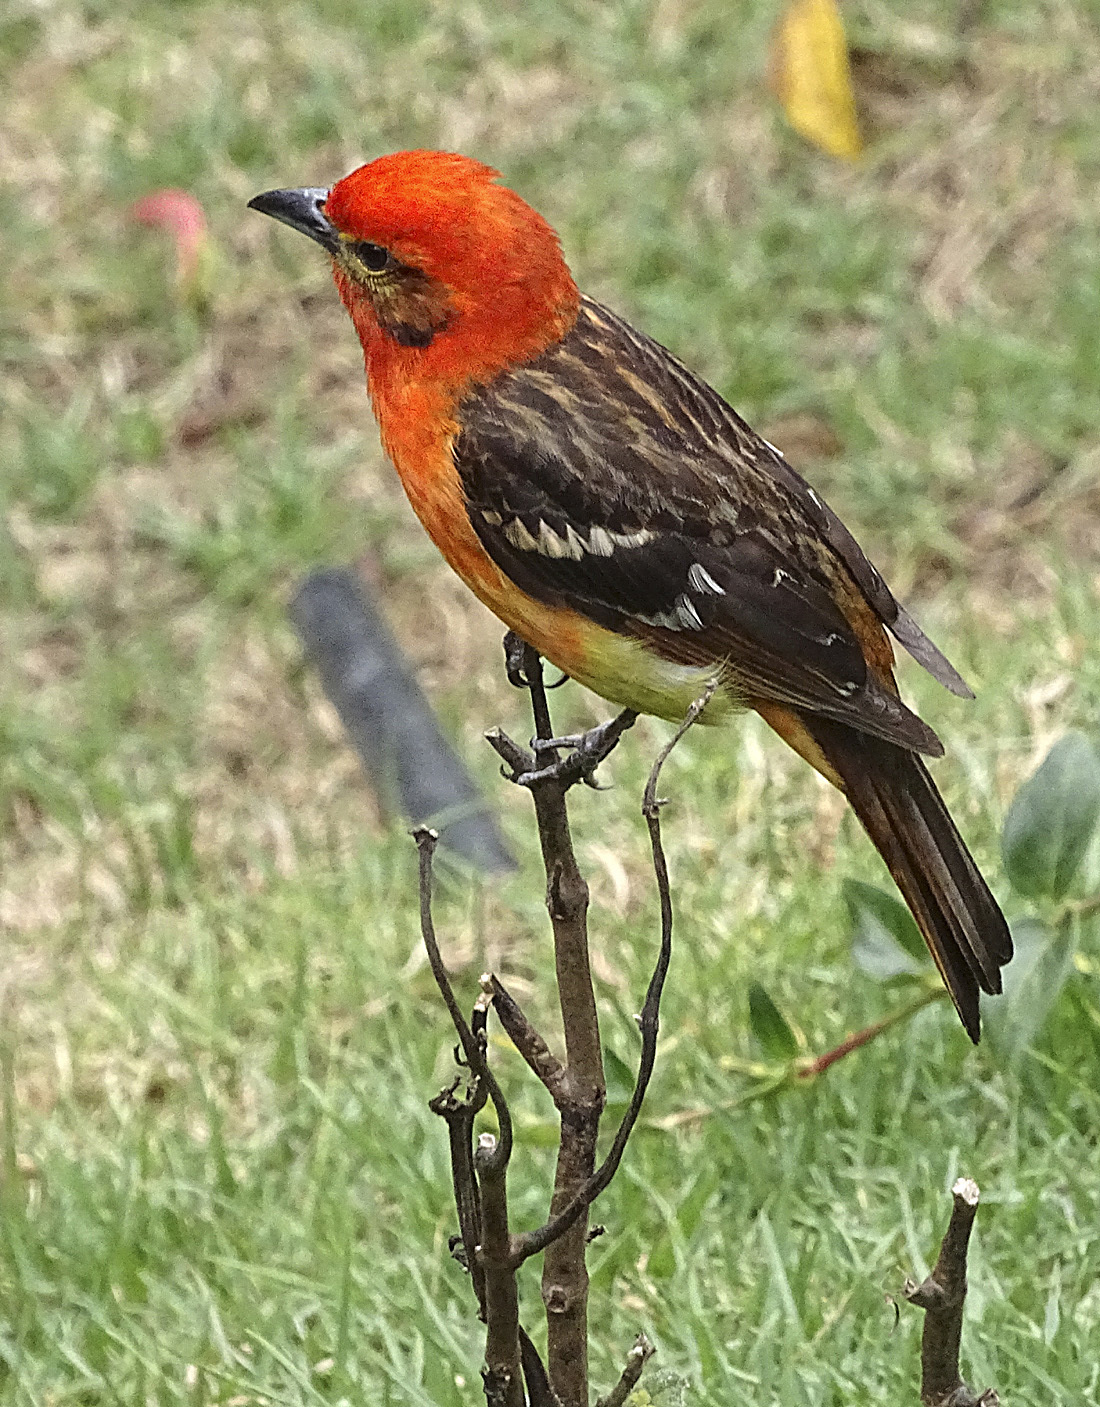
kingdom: Animalia
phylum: Chordata
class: Aves
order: Passeriformes
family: Cardinalidae
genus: Piranga
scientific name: Piranga bidentata
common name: Flame-colored tanager
